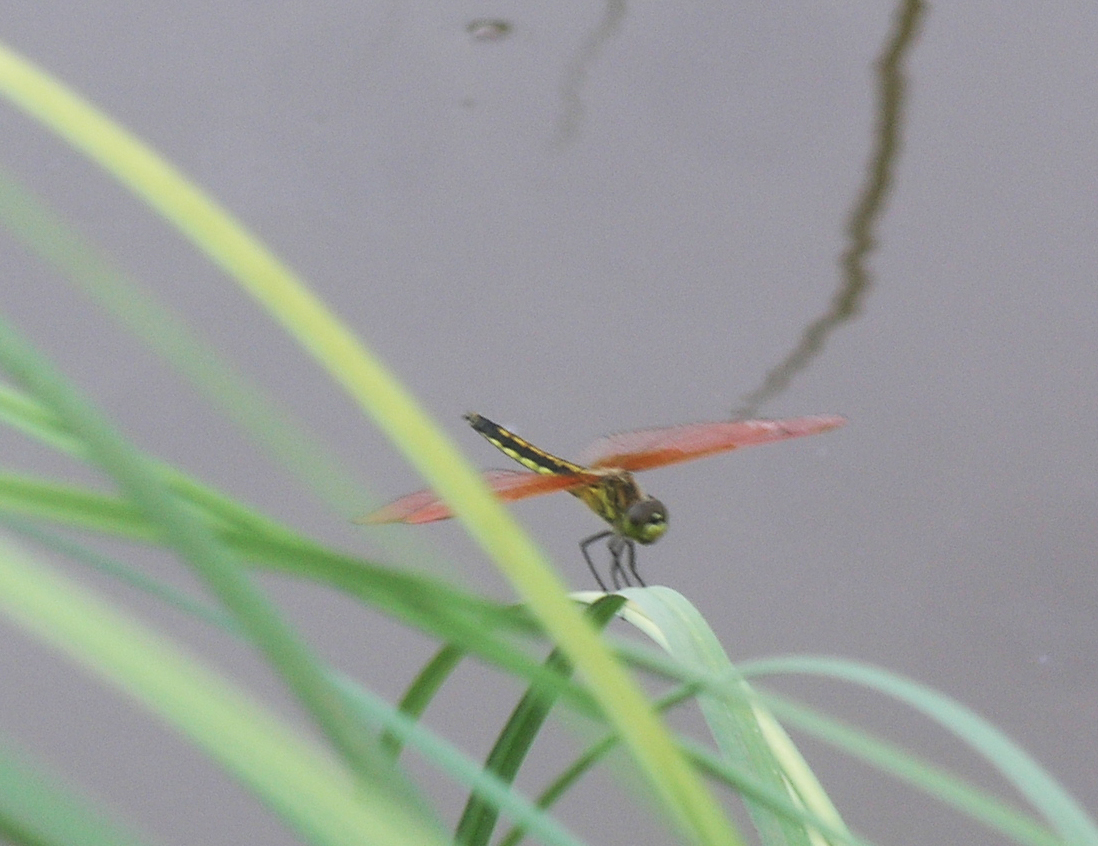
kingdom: Animalia
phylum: Arthropoda
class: Insecta
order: Odonata
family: Libellulidae
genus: Deielia
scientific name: Deielia phaon
